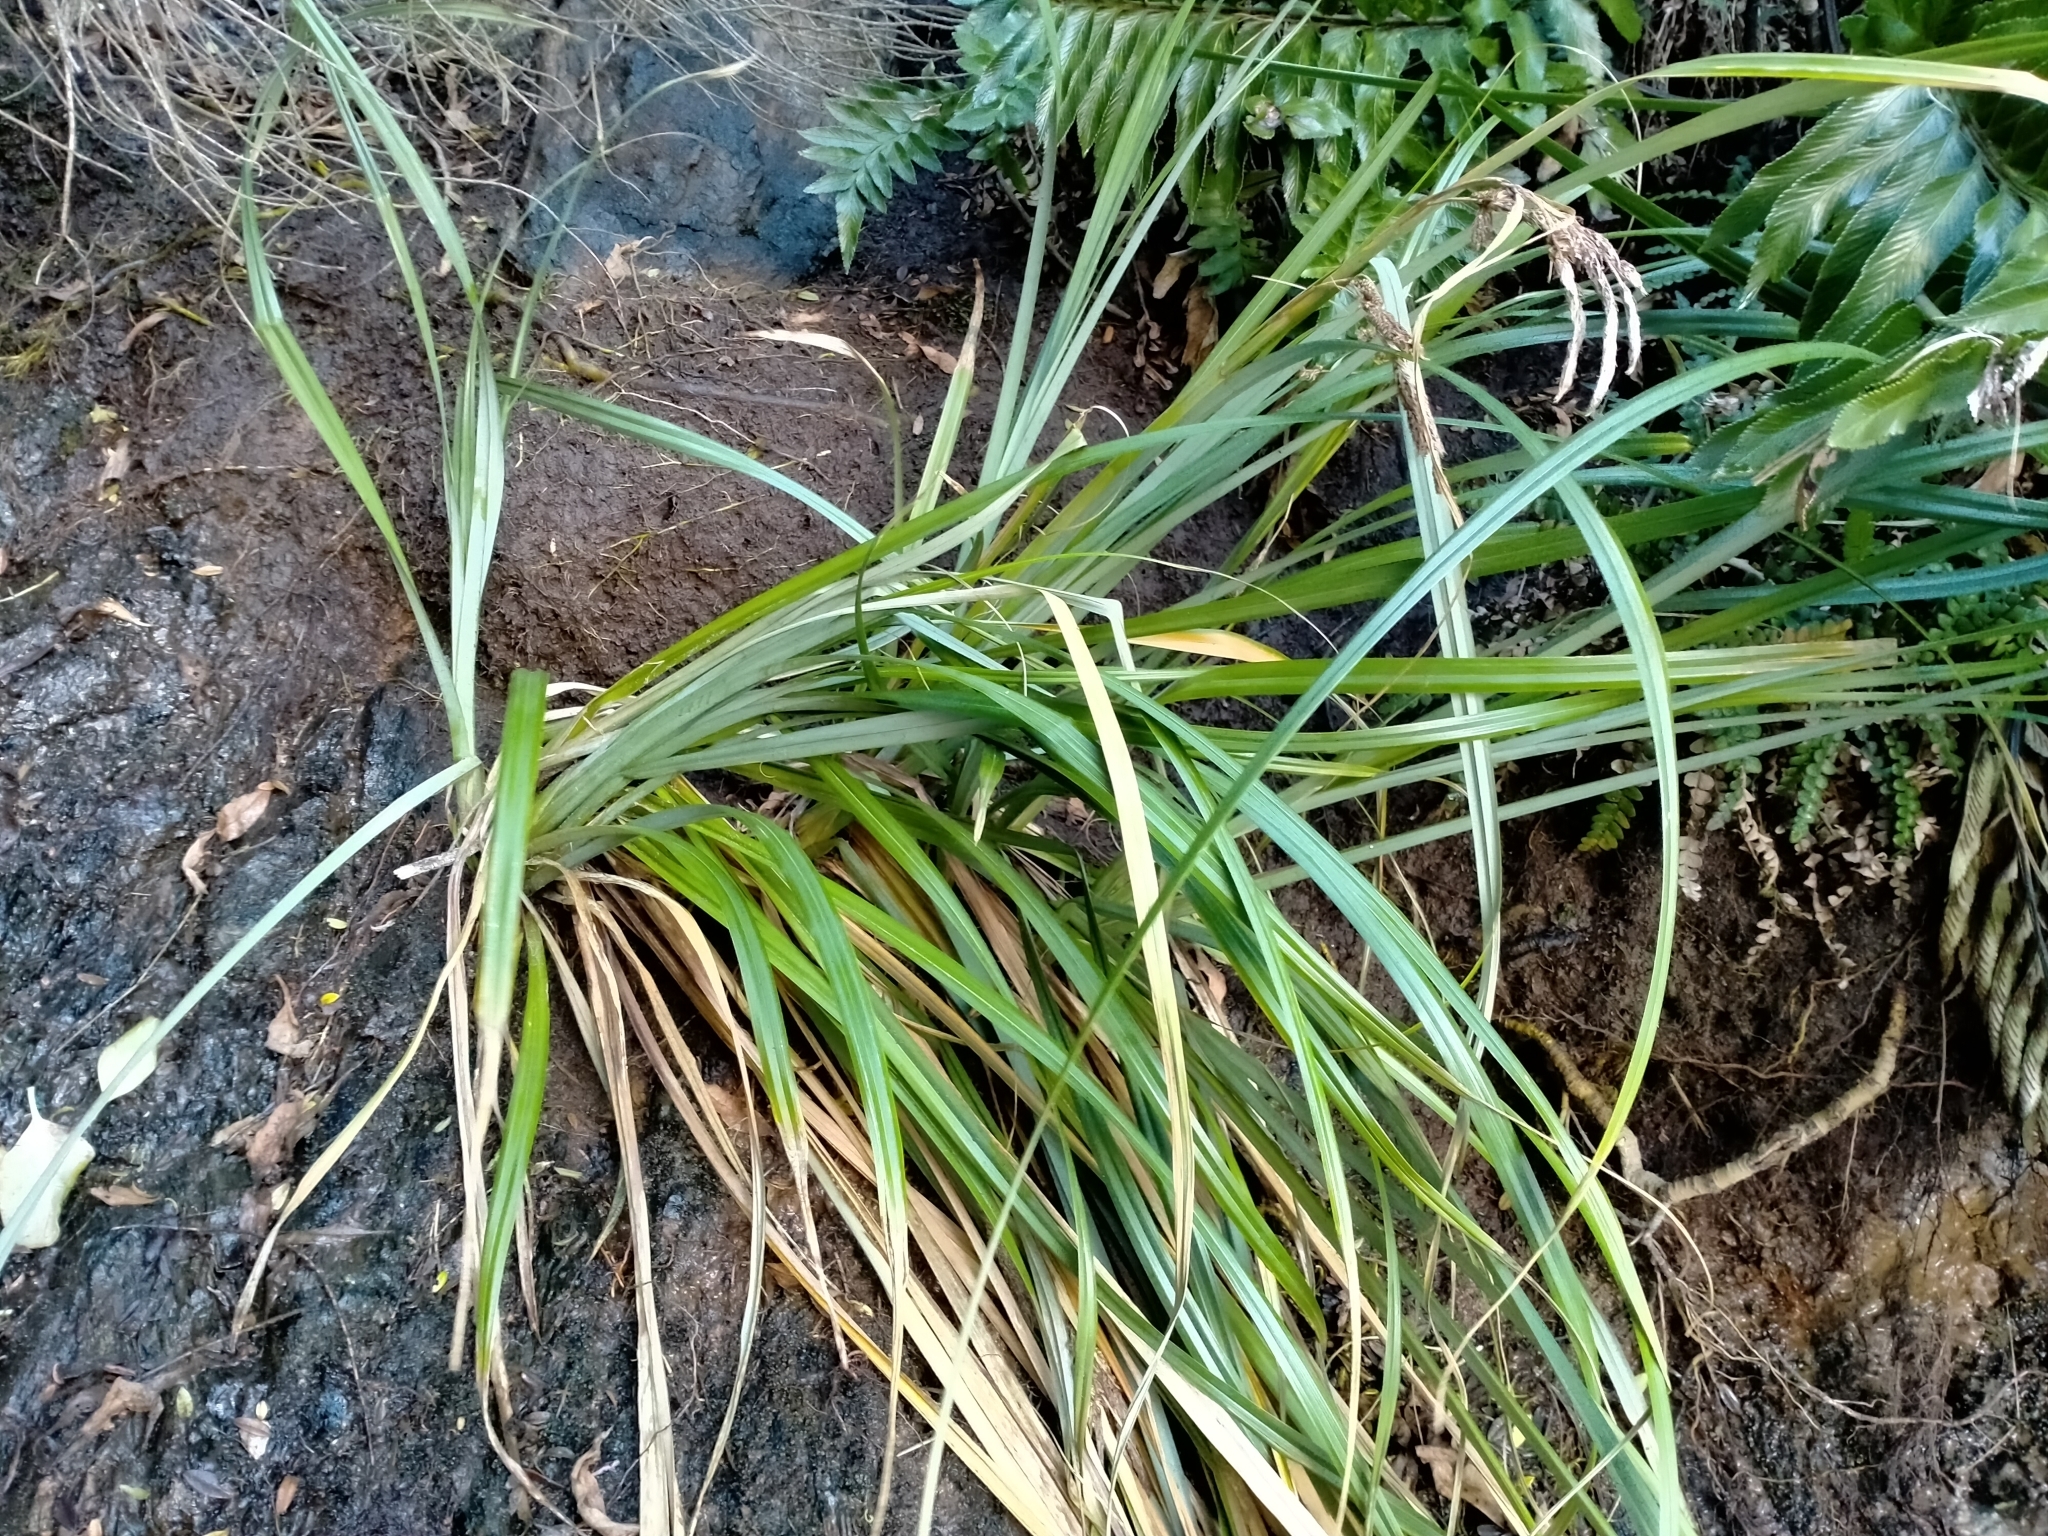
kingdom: Plantae
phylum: Tracheophyta
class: Liliopsida
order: Poales
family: Cyperaceae
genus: Carex
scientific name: Carex trifida
